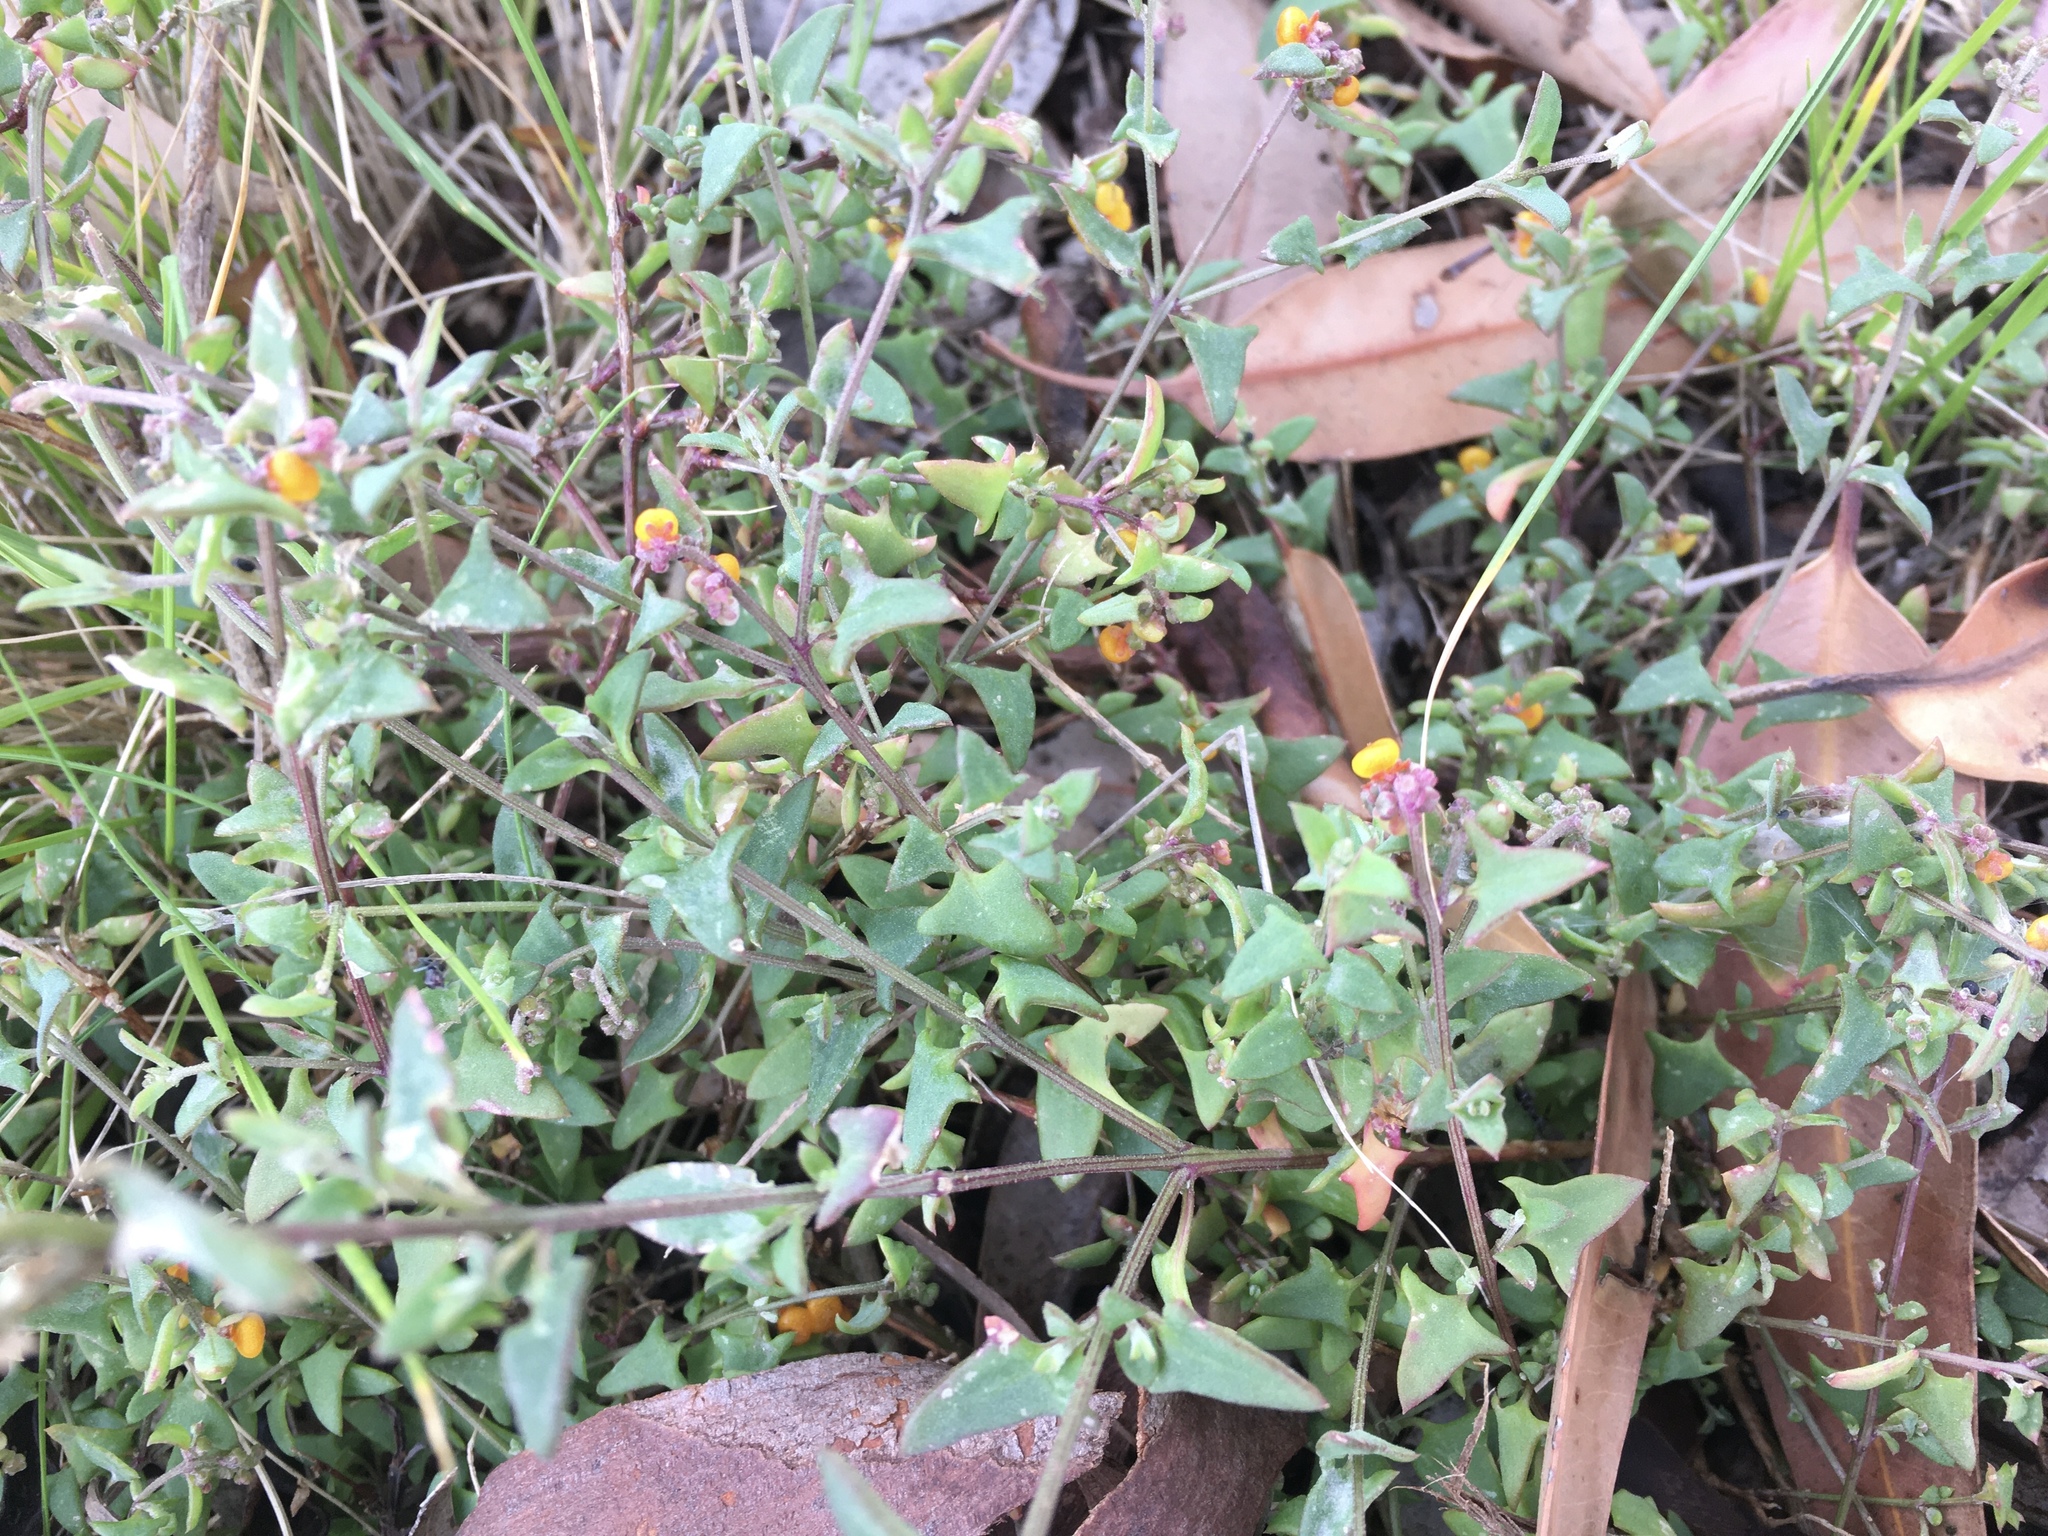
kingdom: Plantae
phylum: Tracheophyta
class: Magnoliopsida
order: Caryophyllales
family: Amaranthaceae
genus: Chenopodium
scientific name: Chenopodium nutans
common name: Climbing-saltbush
